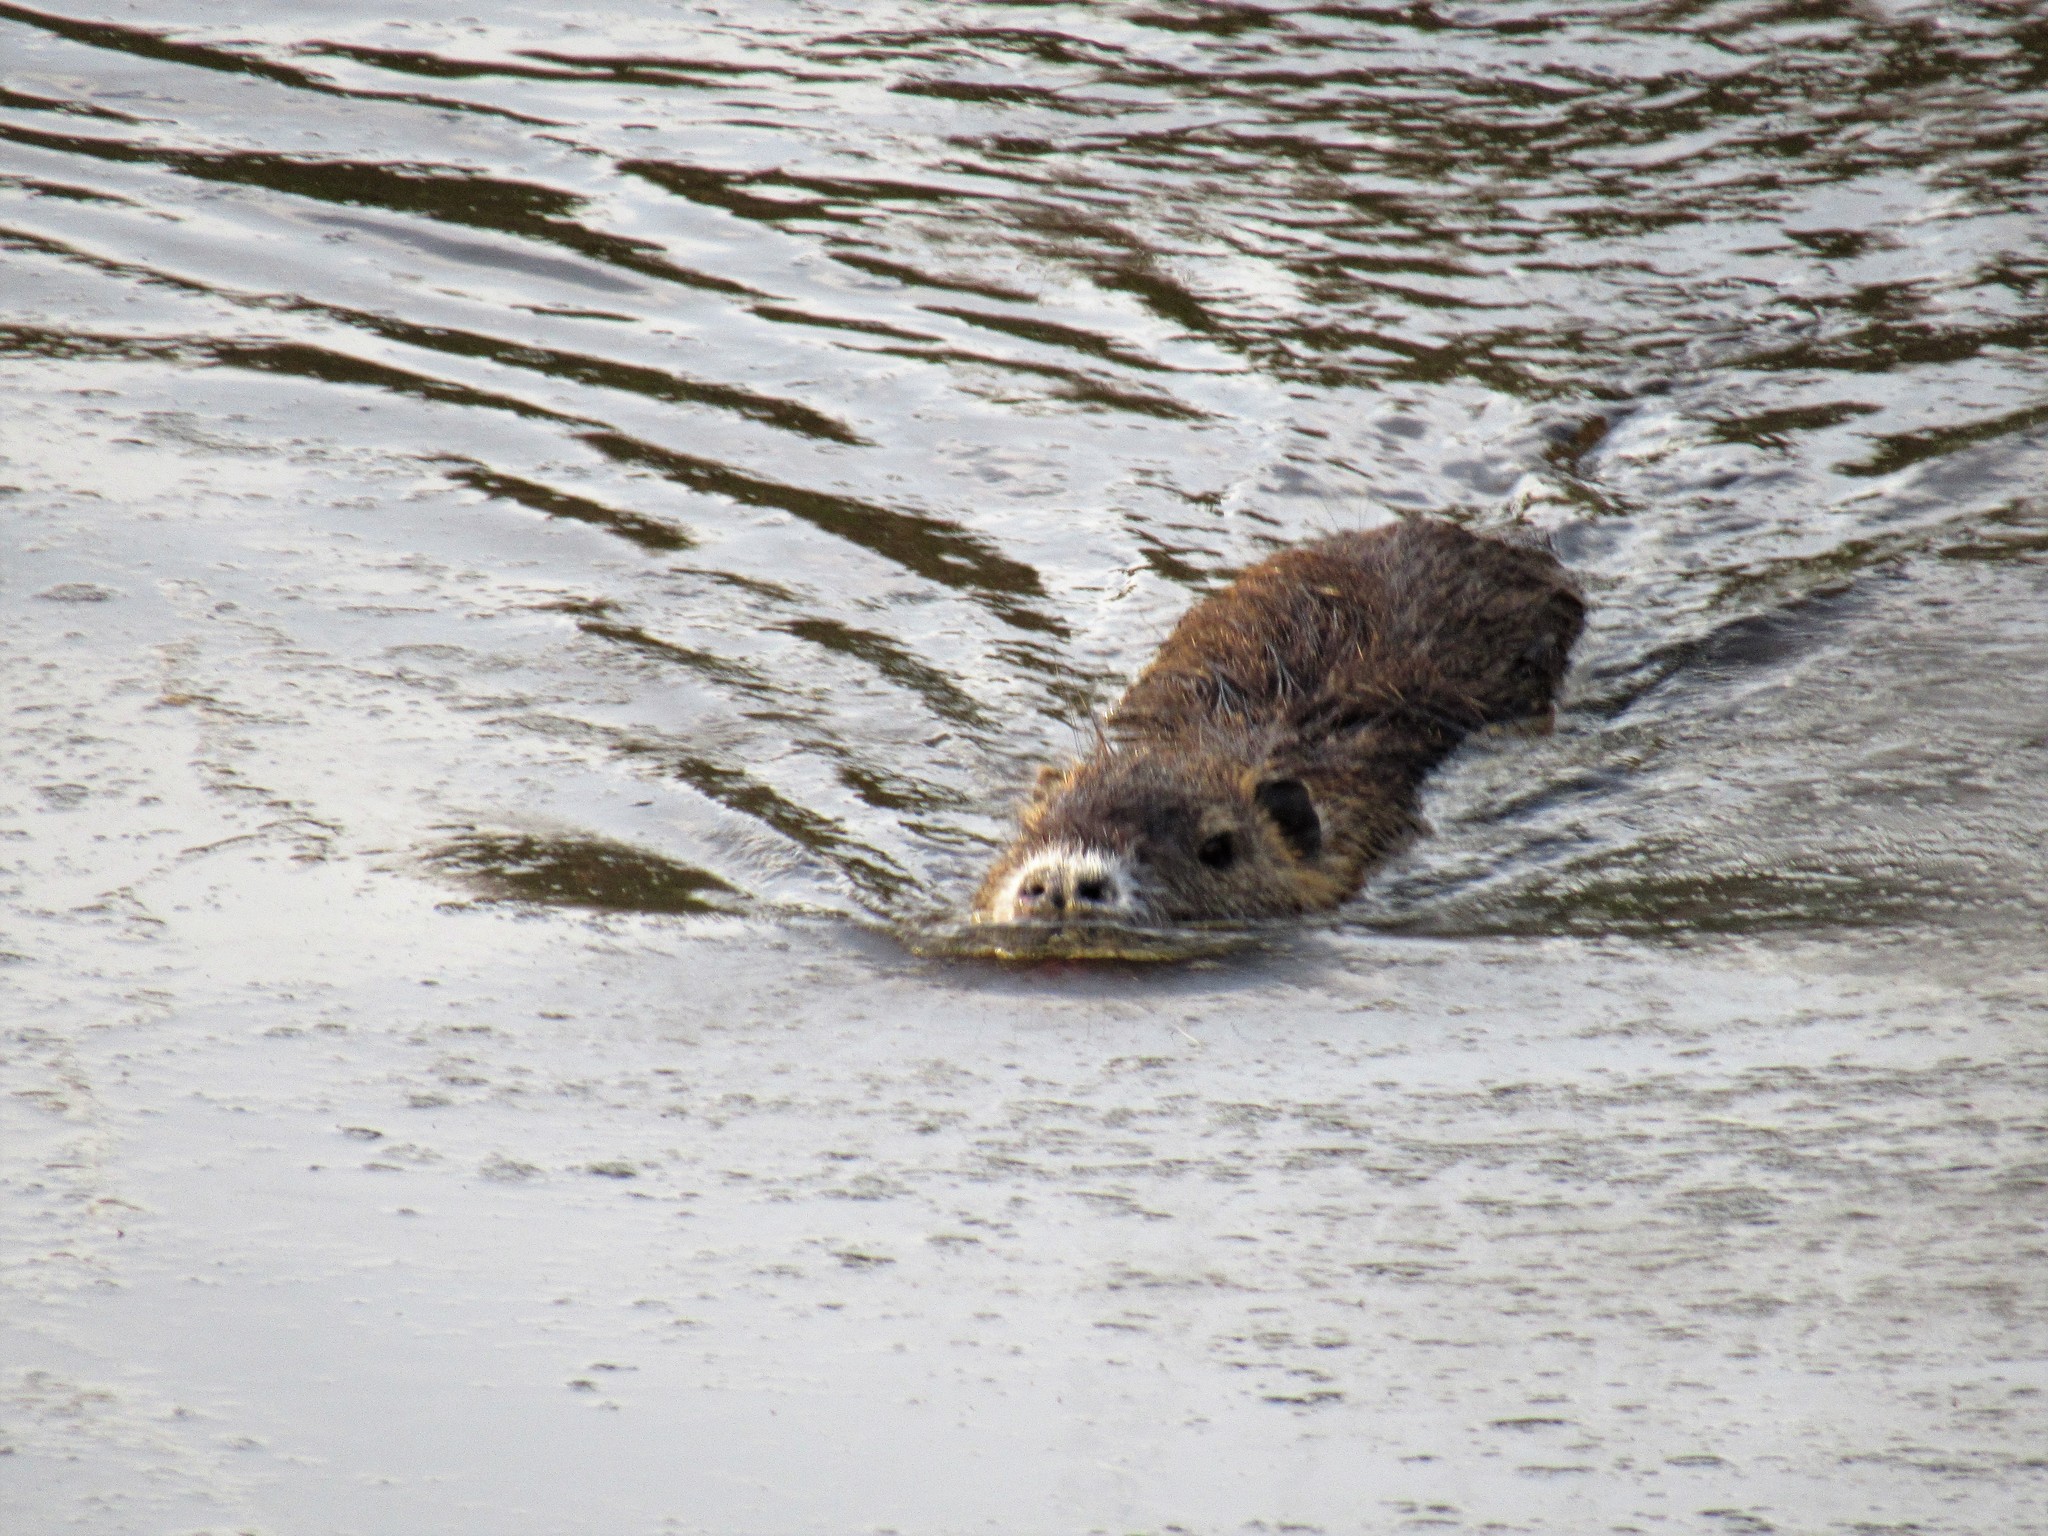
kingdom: Animalia
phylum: Chordata
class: Mammalia
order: Rodentia
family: Myocastoridae
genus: Myocastor
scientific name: Myocastor coypus
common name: Coypu
